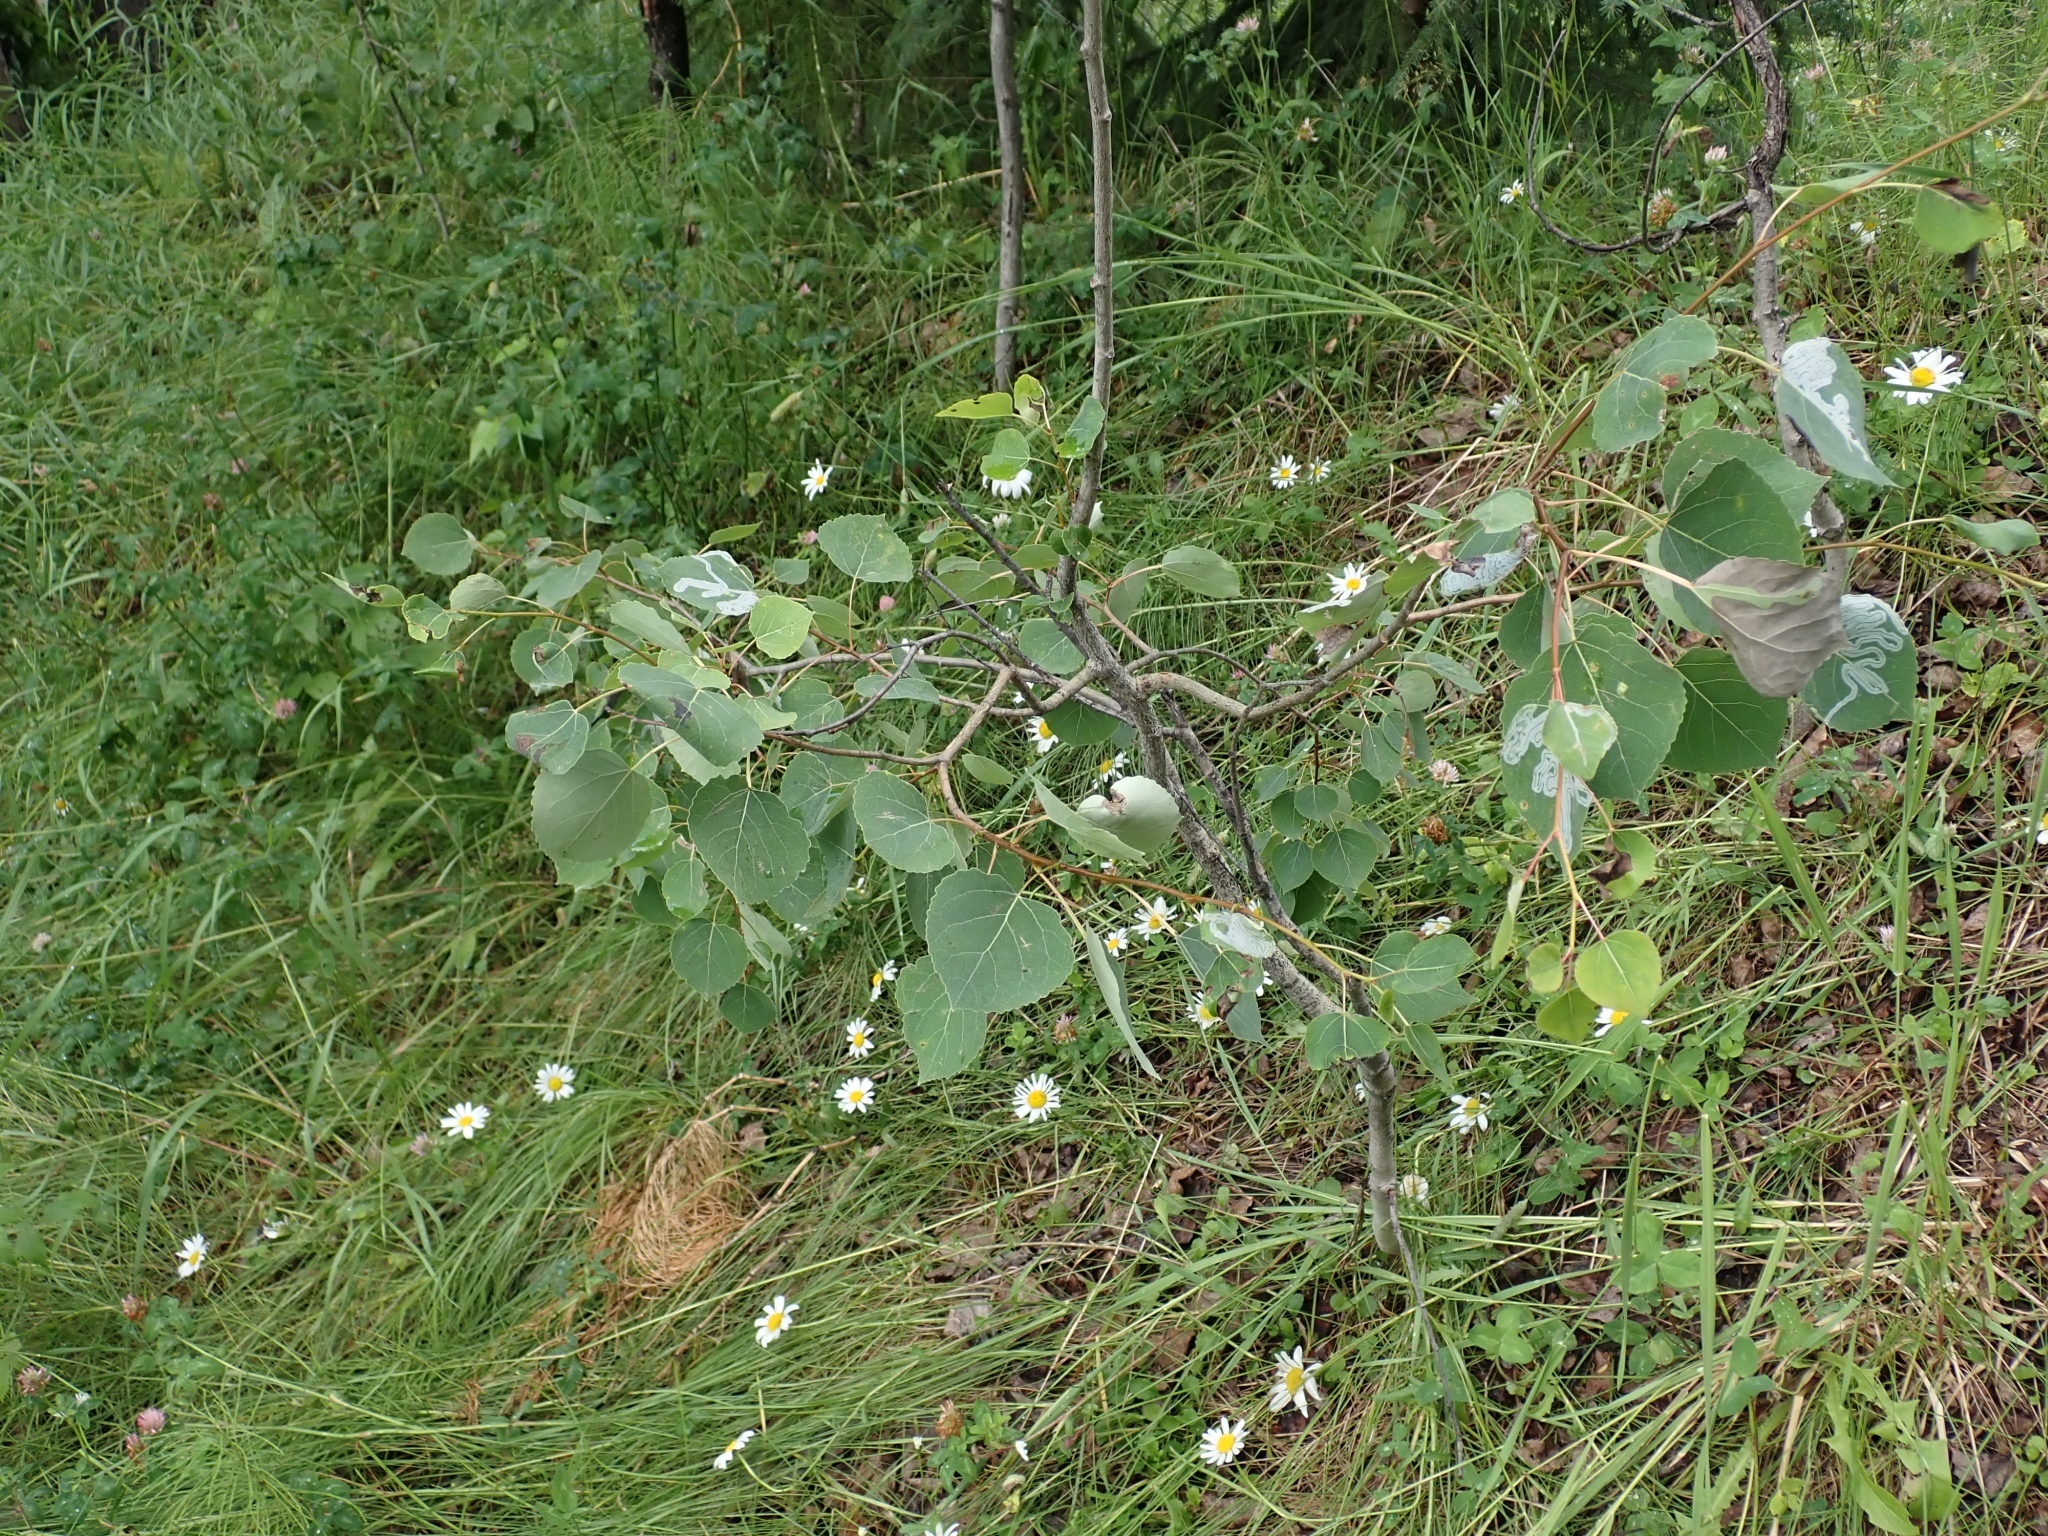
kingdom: Plantae
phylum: Tracheophyta
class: Magnoliopsida
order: Malpighiales
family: Salicaceae
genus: Populus
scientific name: Populus tremuloides
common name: Quaking aspen
